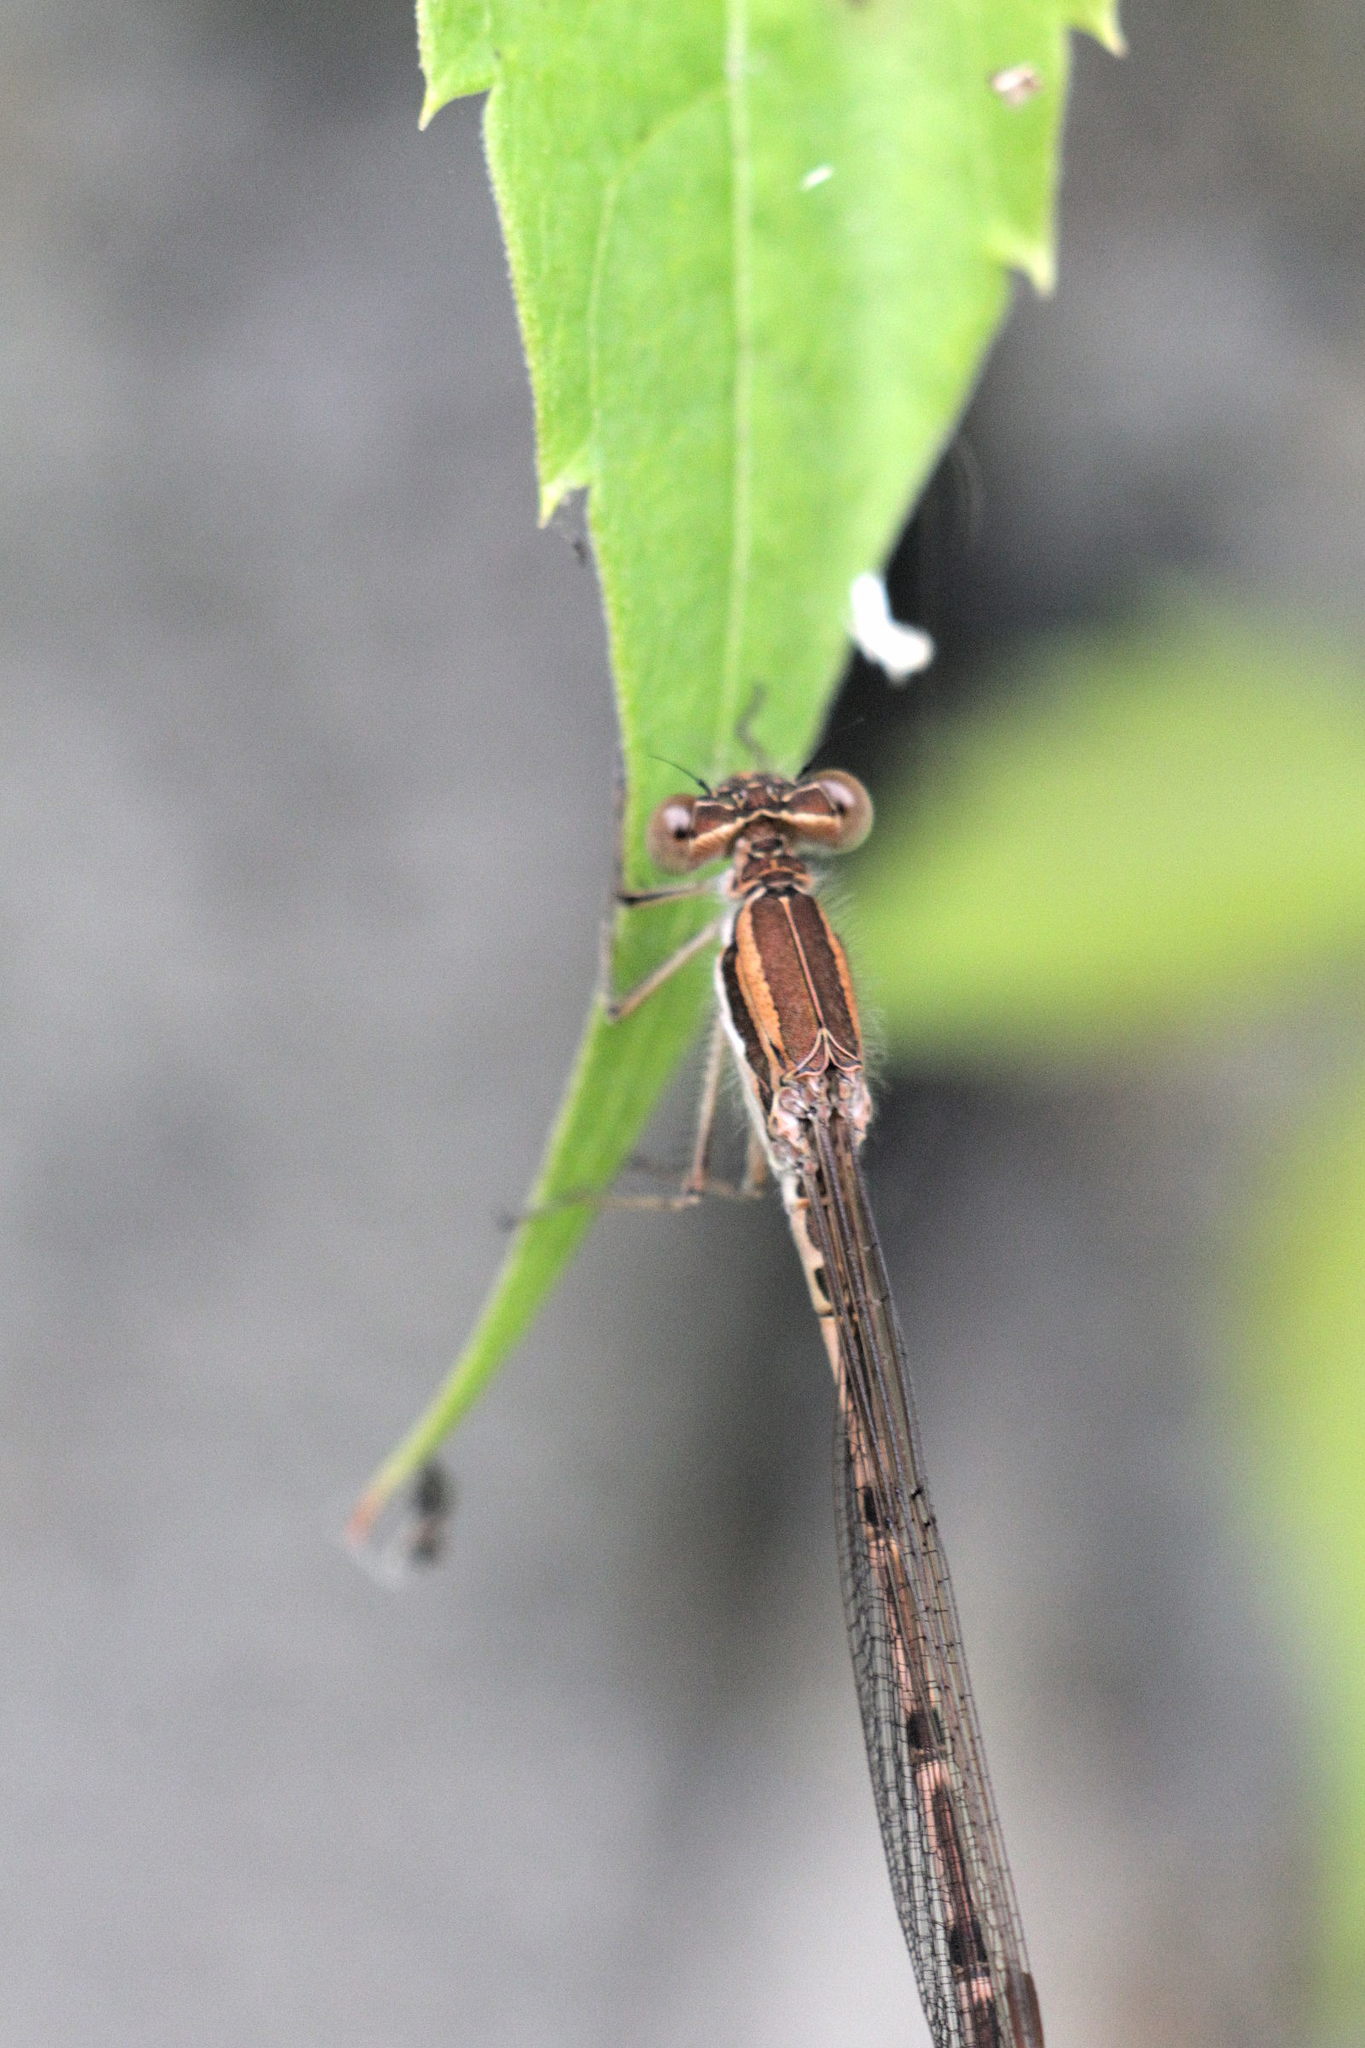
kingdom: Animalia
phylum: Arthropoda
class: Insecta
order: Odonata
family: Lestidae
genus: Sympecma
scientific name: Sympecma fusca
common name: Common winter damsel
